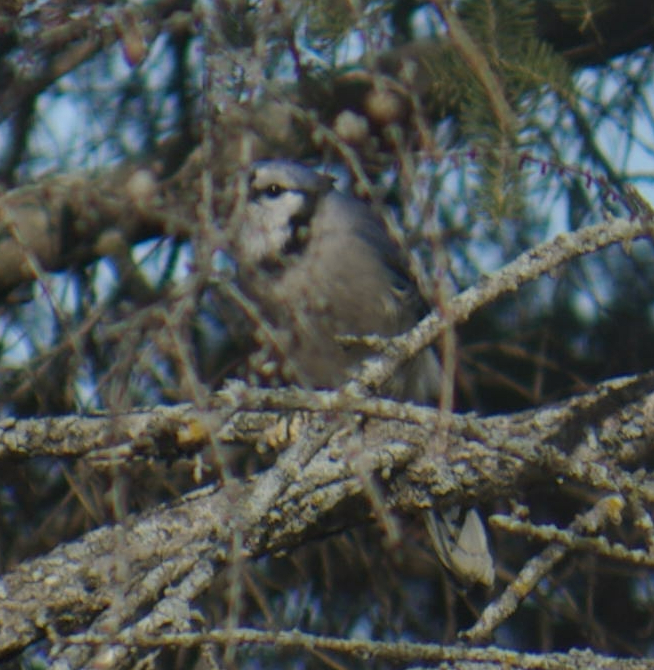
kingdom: Animalia
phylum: Chordata
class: Aves
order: Passeriformes
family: Corvidae
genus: Cyanocitta
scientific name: Cyanocitta cristata
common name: Blue jay
